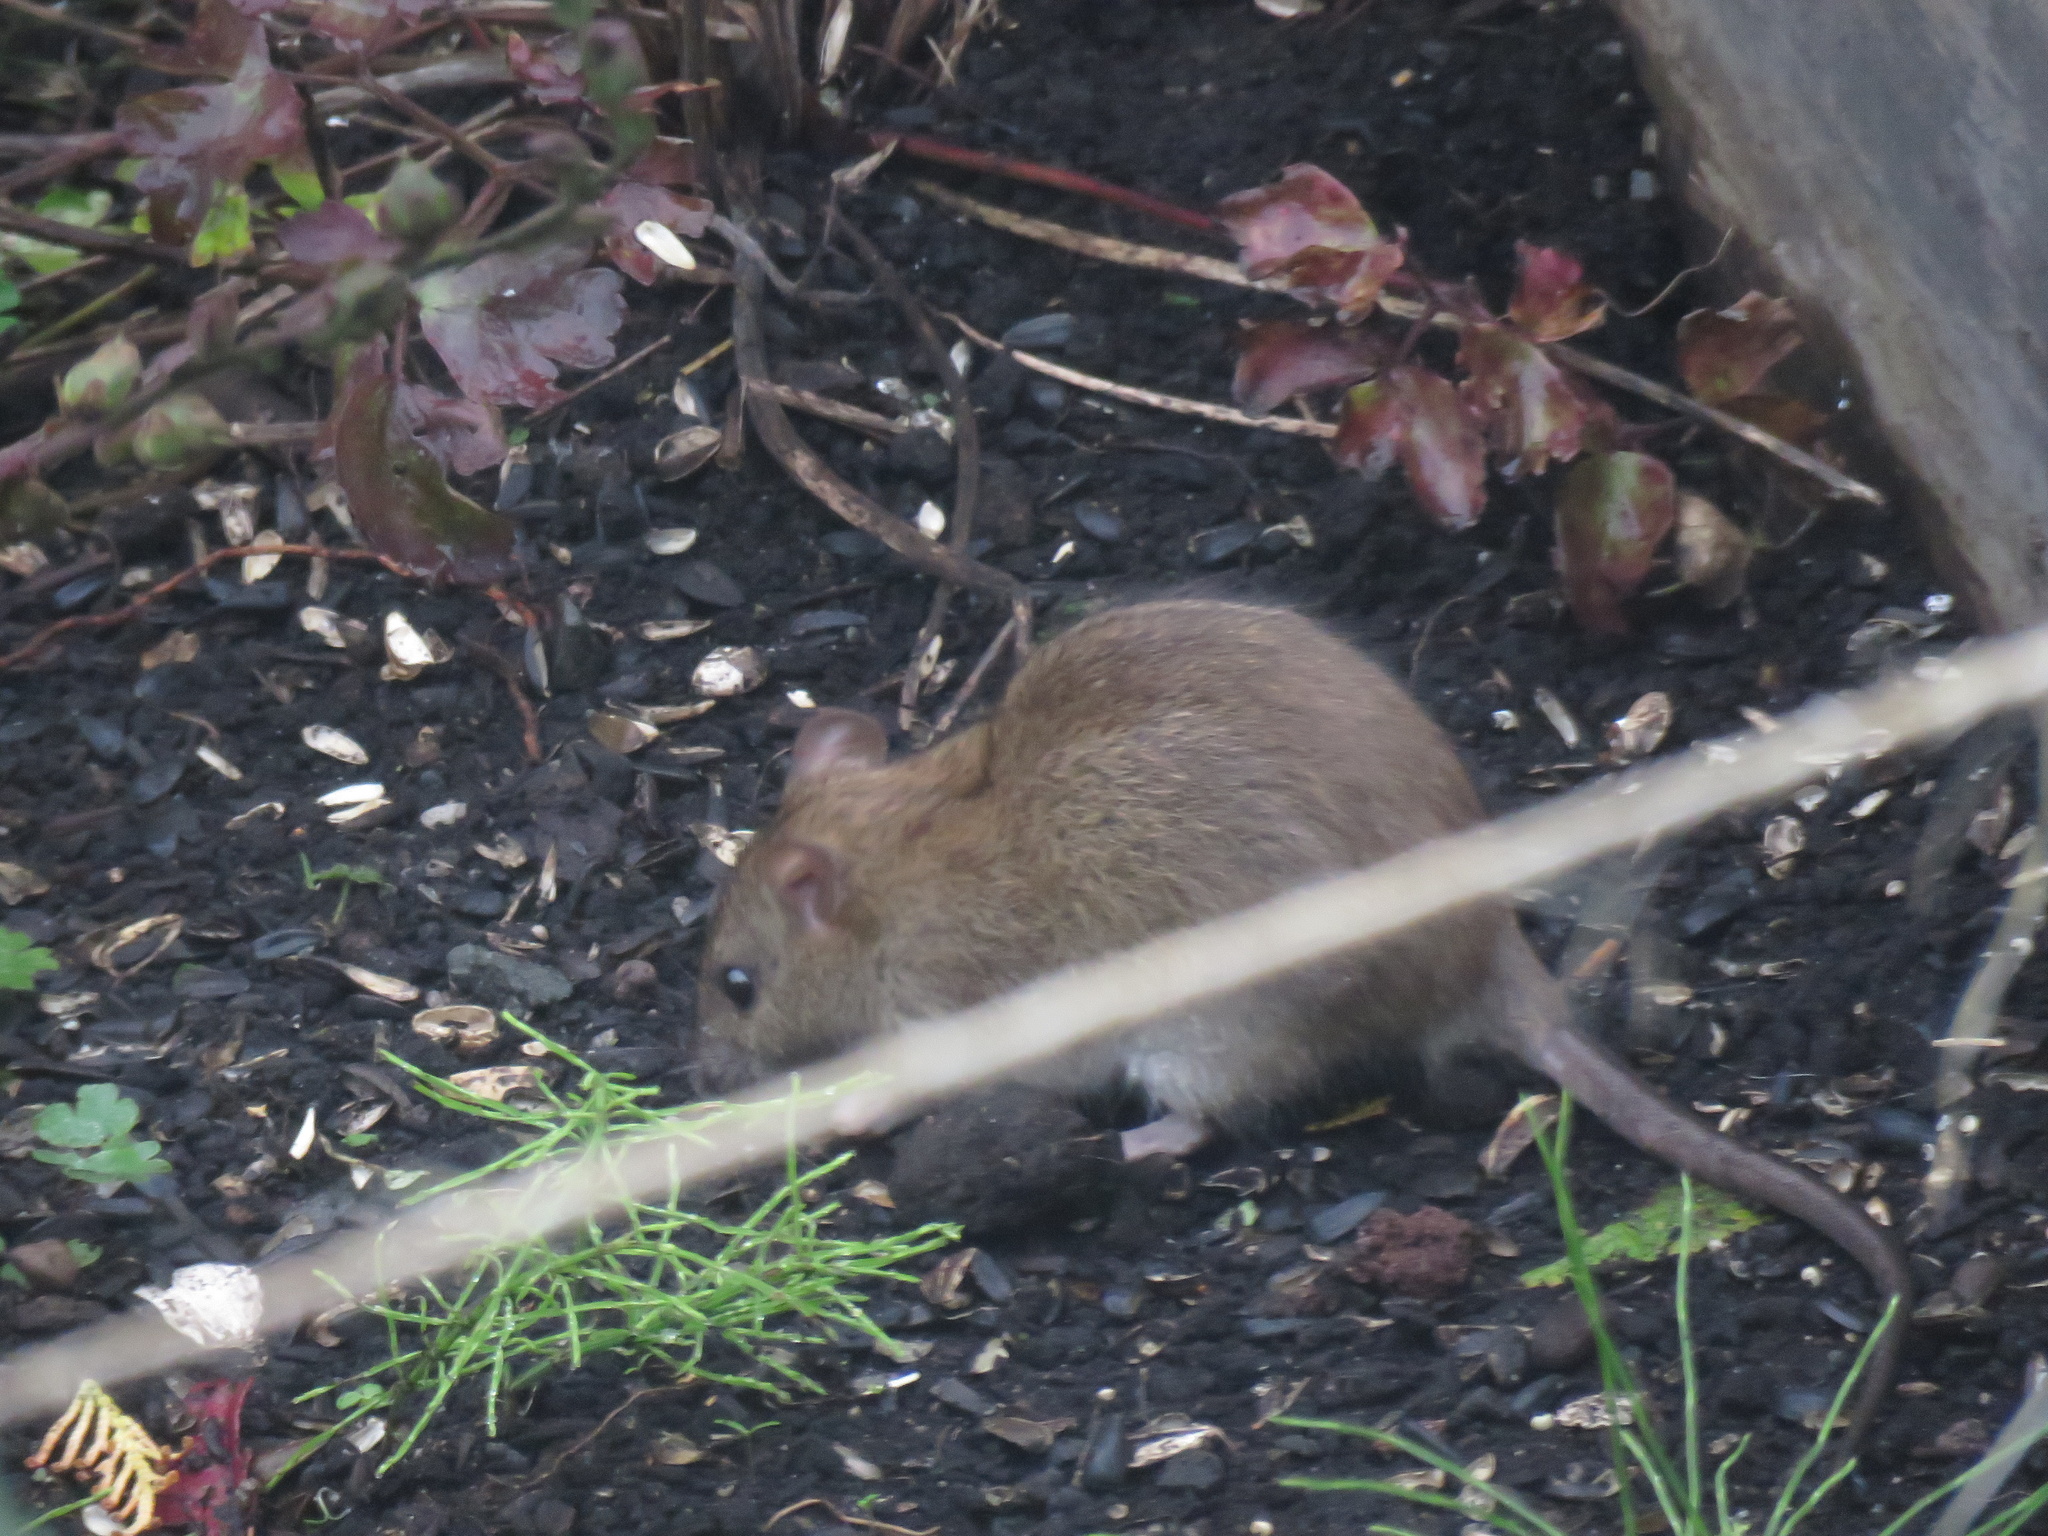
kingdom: Animalia
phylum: Chordata
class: Mammalia
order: Rodentia
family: Muridae
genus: Rattus
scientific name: Rattus norvegicus
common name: Brown rat
